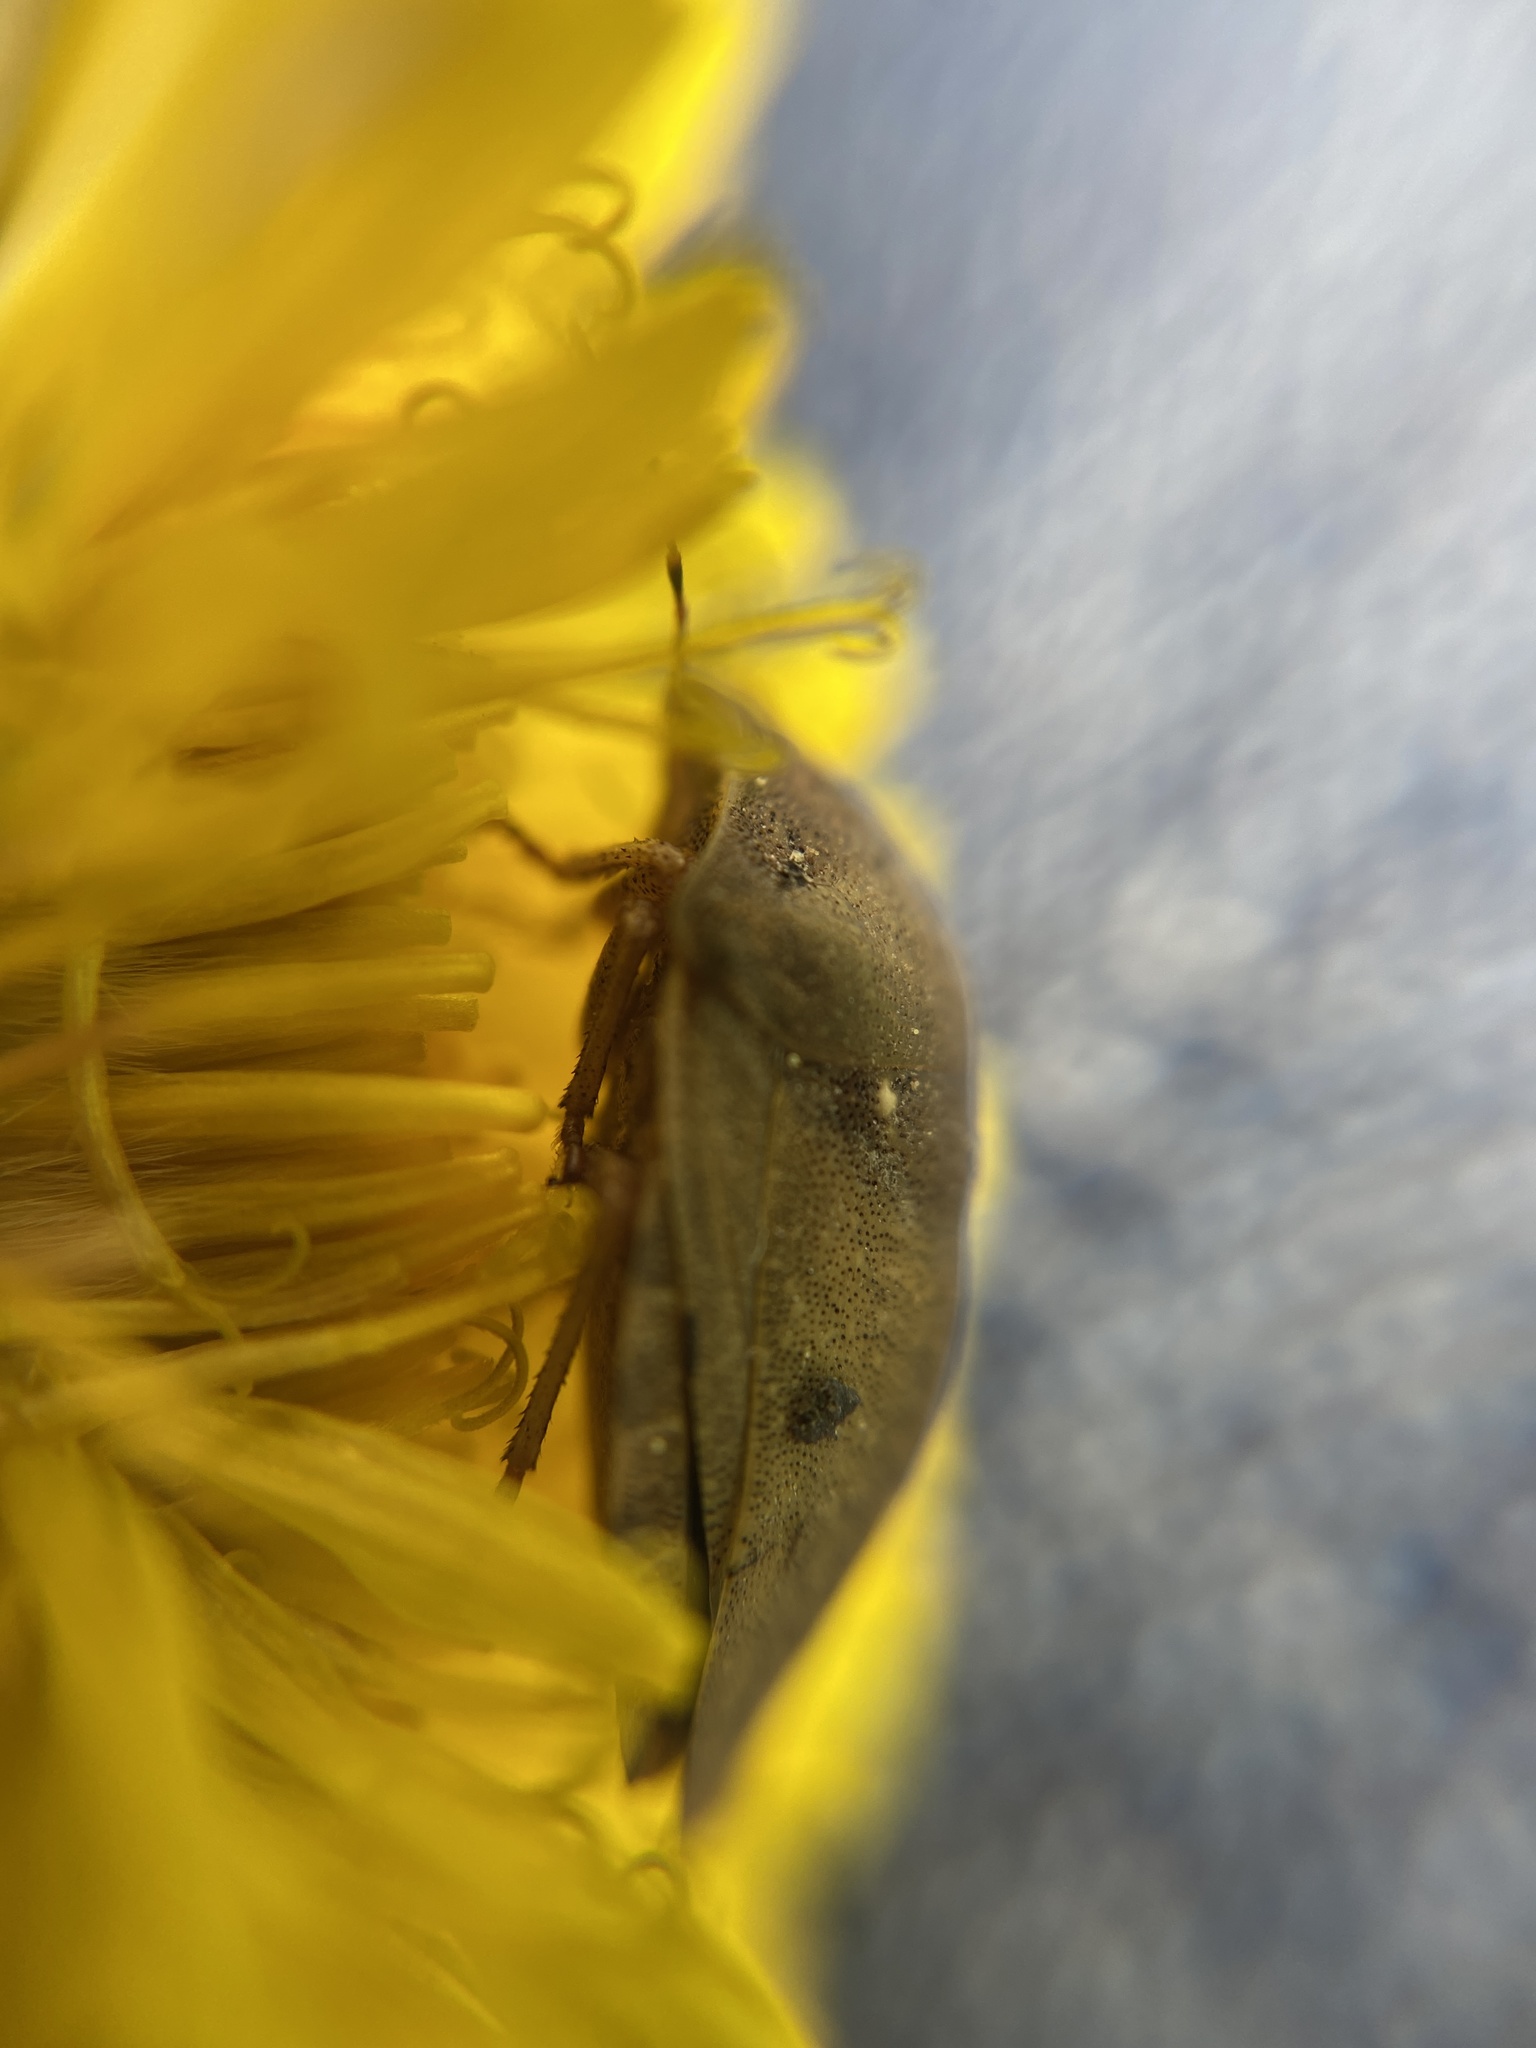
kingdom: Animalia
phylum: Arthropoda
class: Insecta
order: Hemiptera
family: Scutelleridae
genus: Eurygaster
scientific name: Eurygaster testudinaria
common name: Tortoise bug
